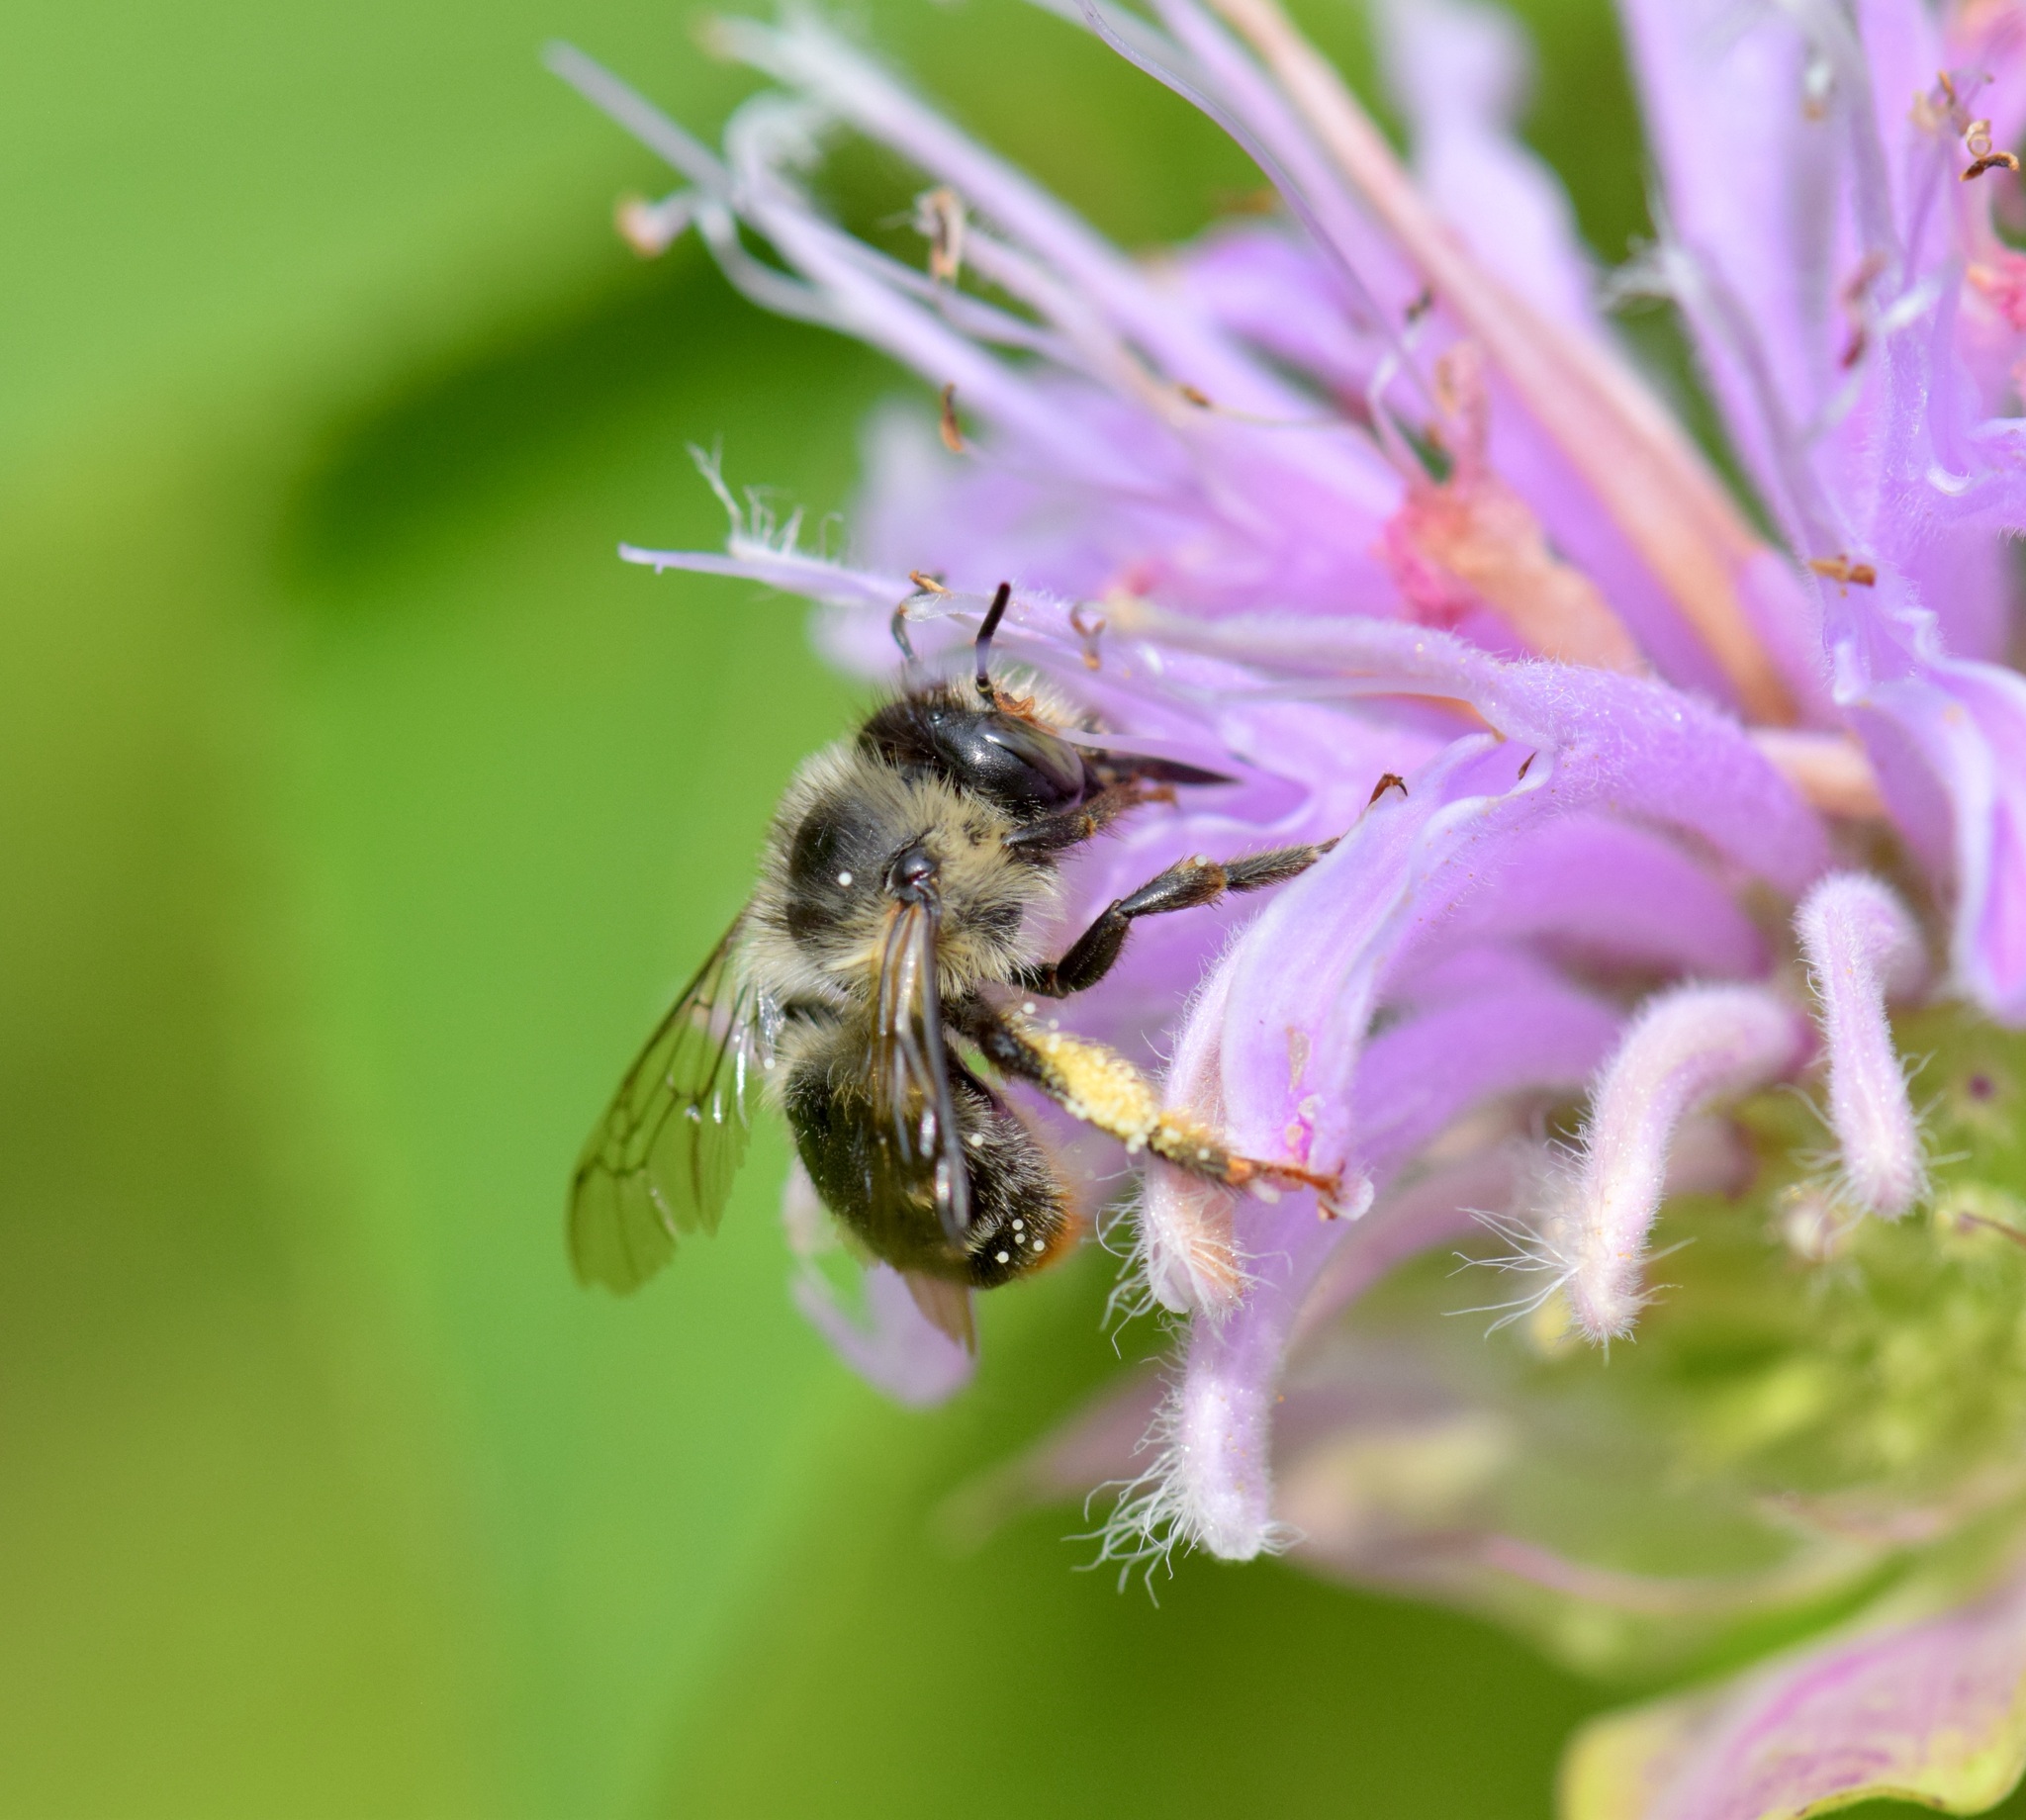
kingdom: Animalia
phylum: Arthropoda
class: Insecta
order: Hymenoptera
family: Apidae
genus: Anthophora
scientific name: Anthophora terminalis
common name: Orange-tipped wood-digger bee
